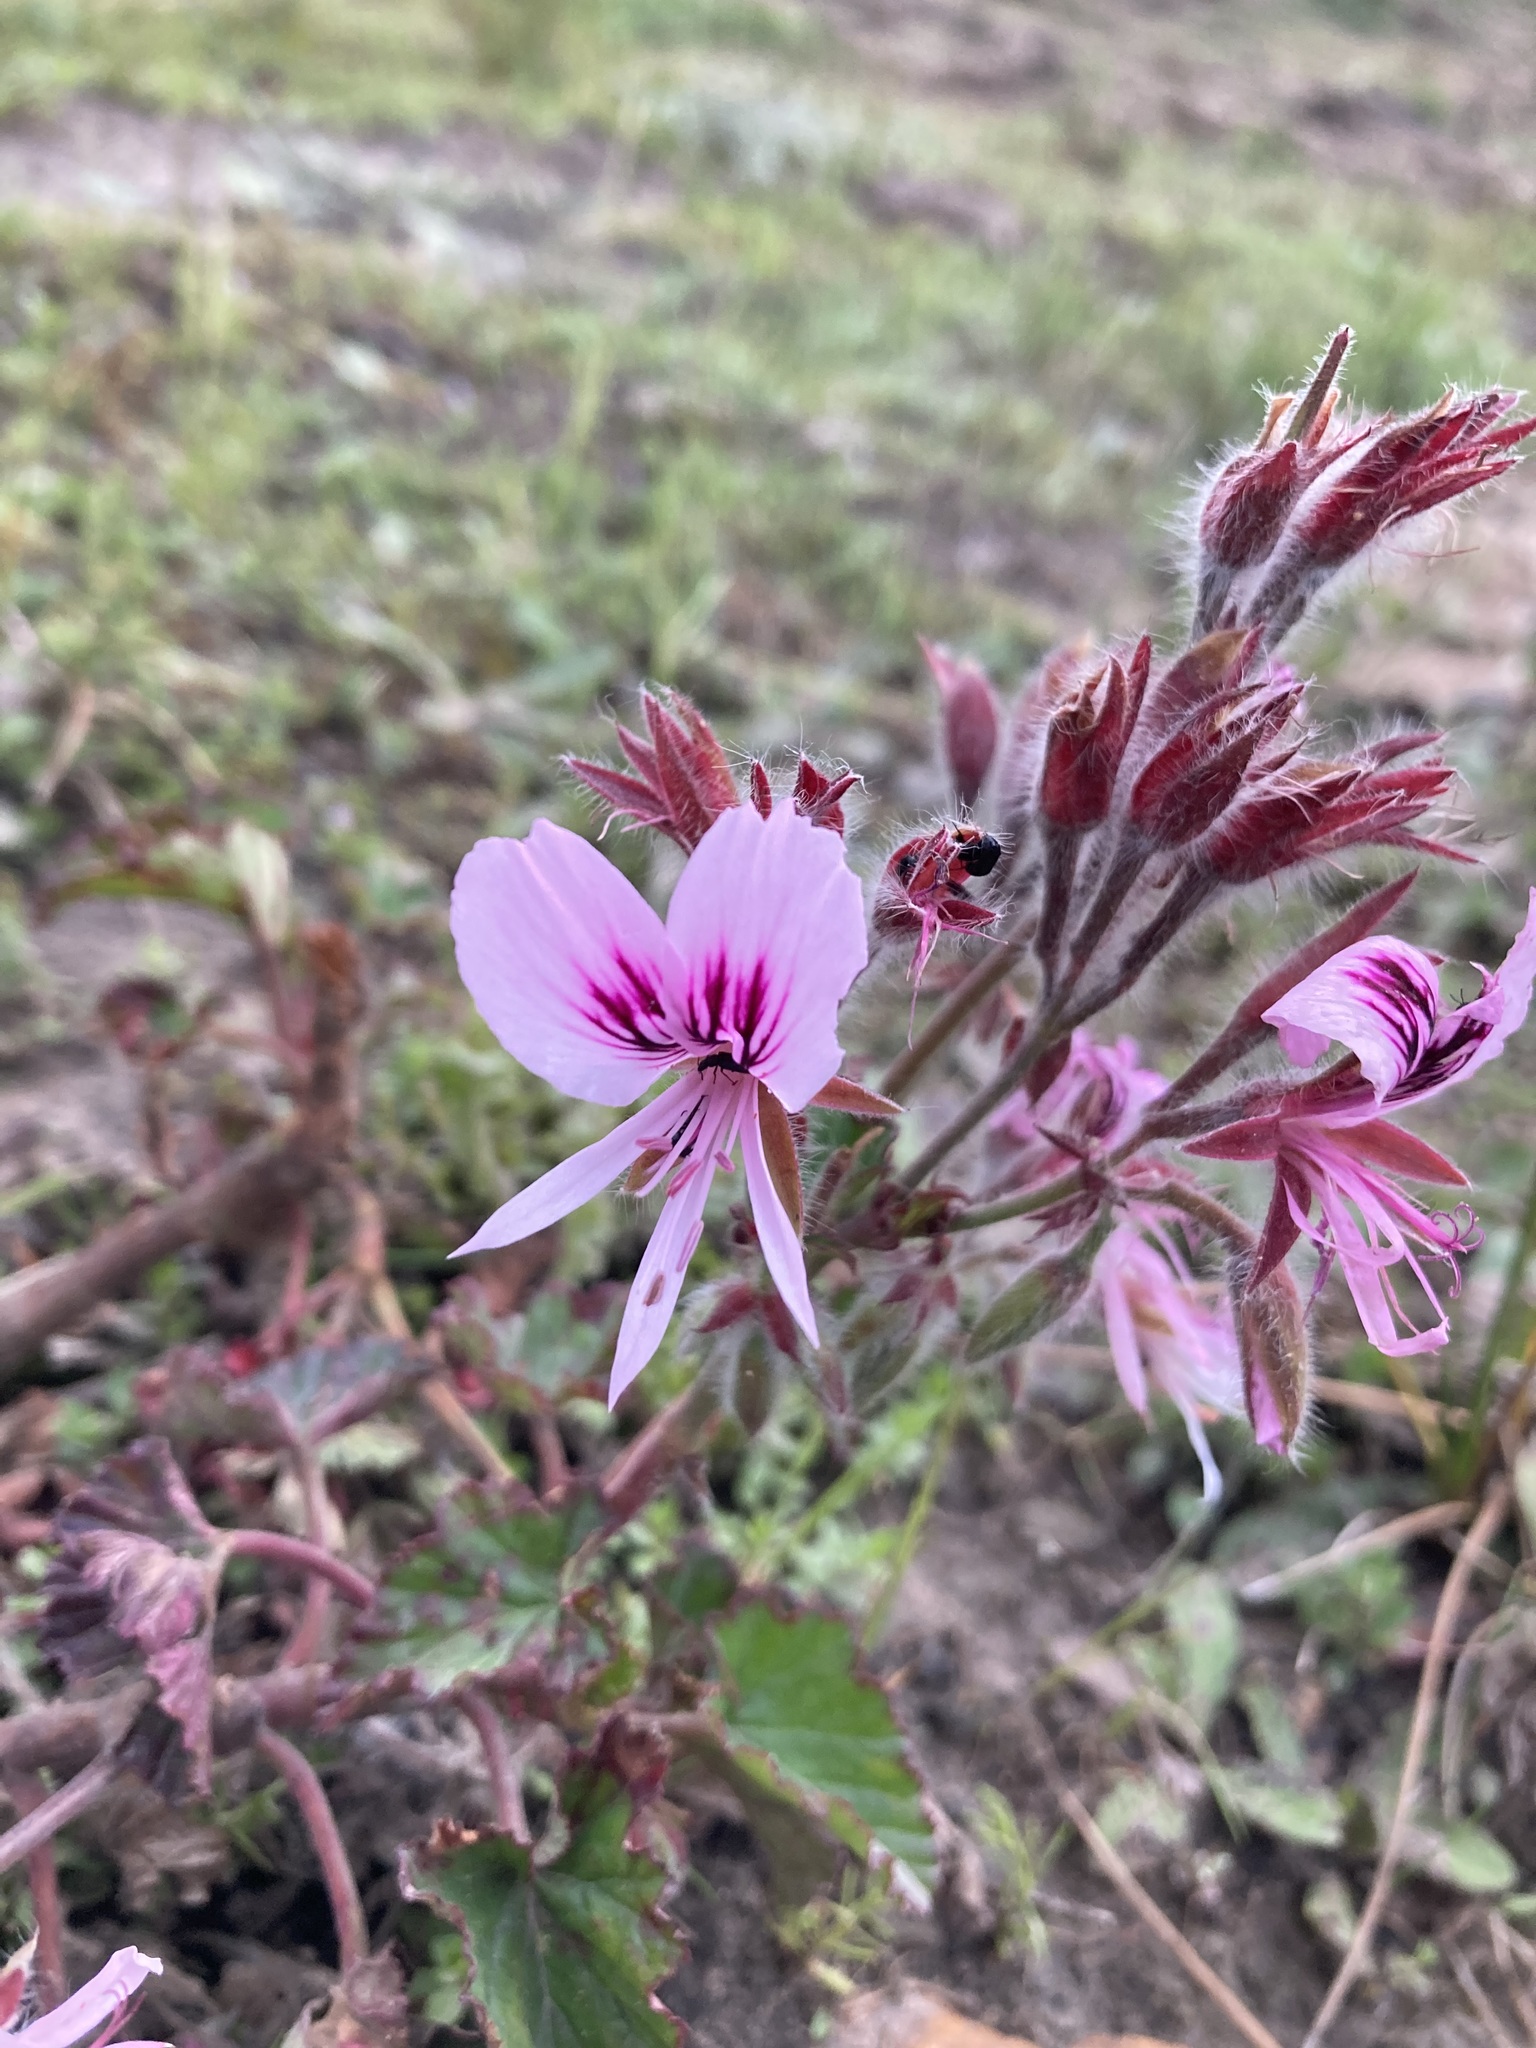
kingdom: Plantae
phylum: Tracheophyta
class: Magnoliopsida
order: Geraniales
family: Geraniaceae
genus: Pelargonium
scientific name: Pelargonium cordifolium
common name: Heart-leaf pelargonium
